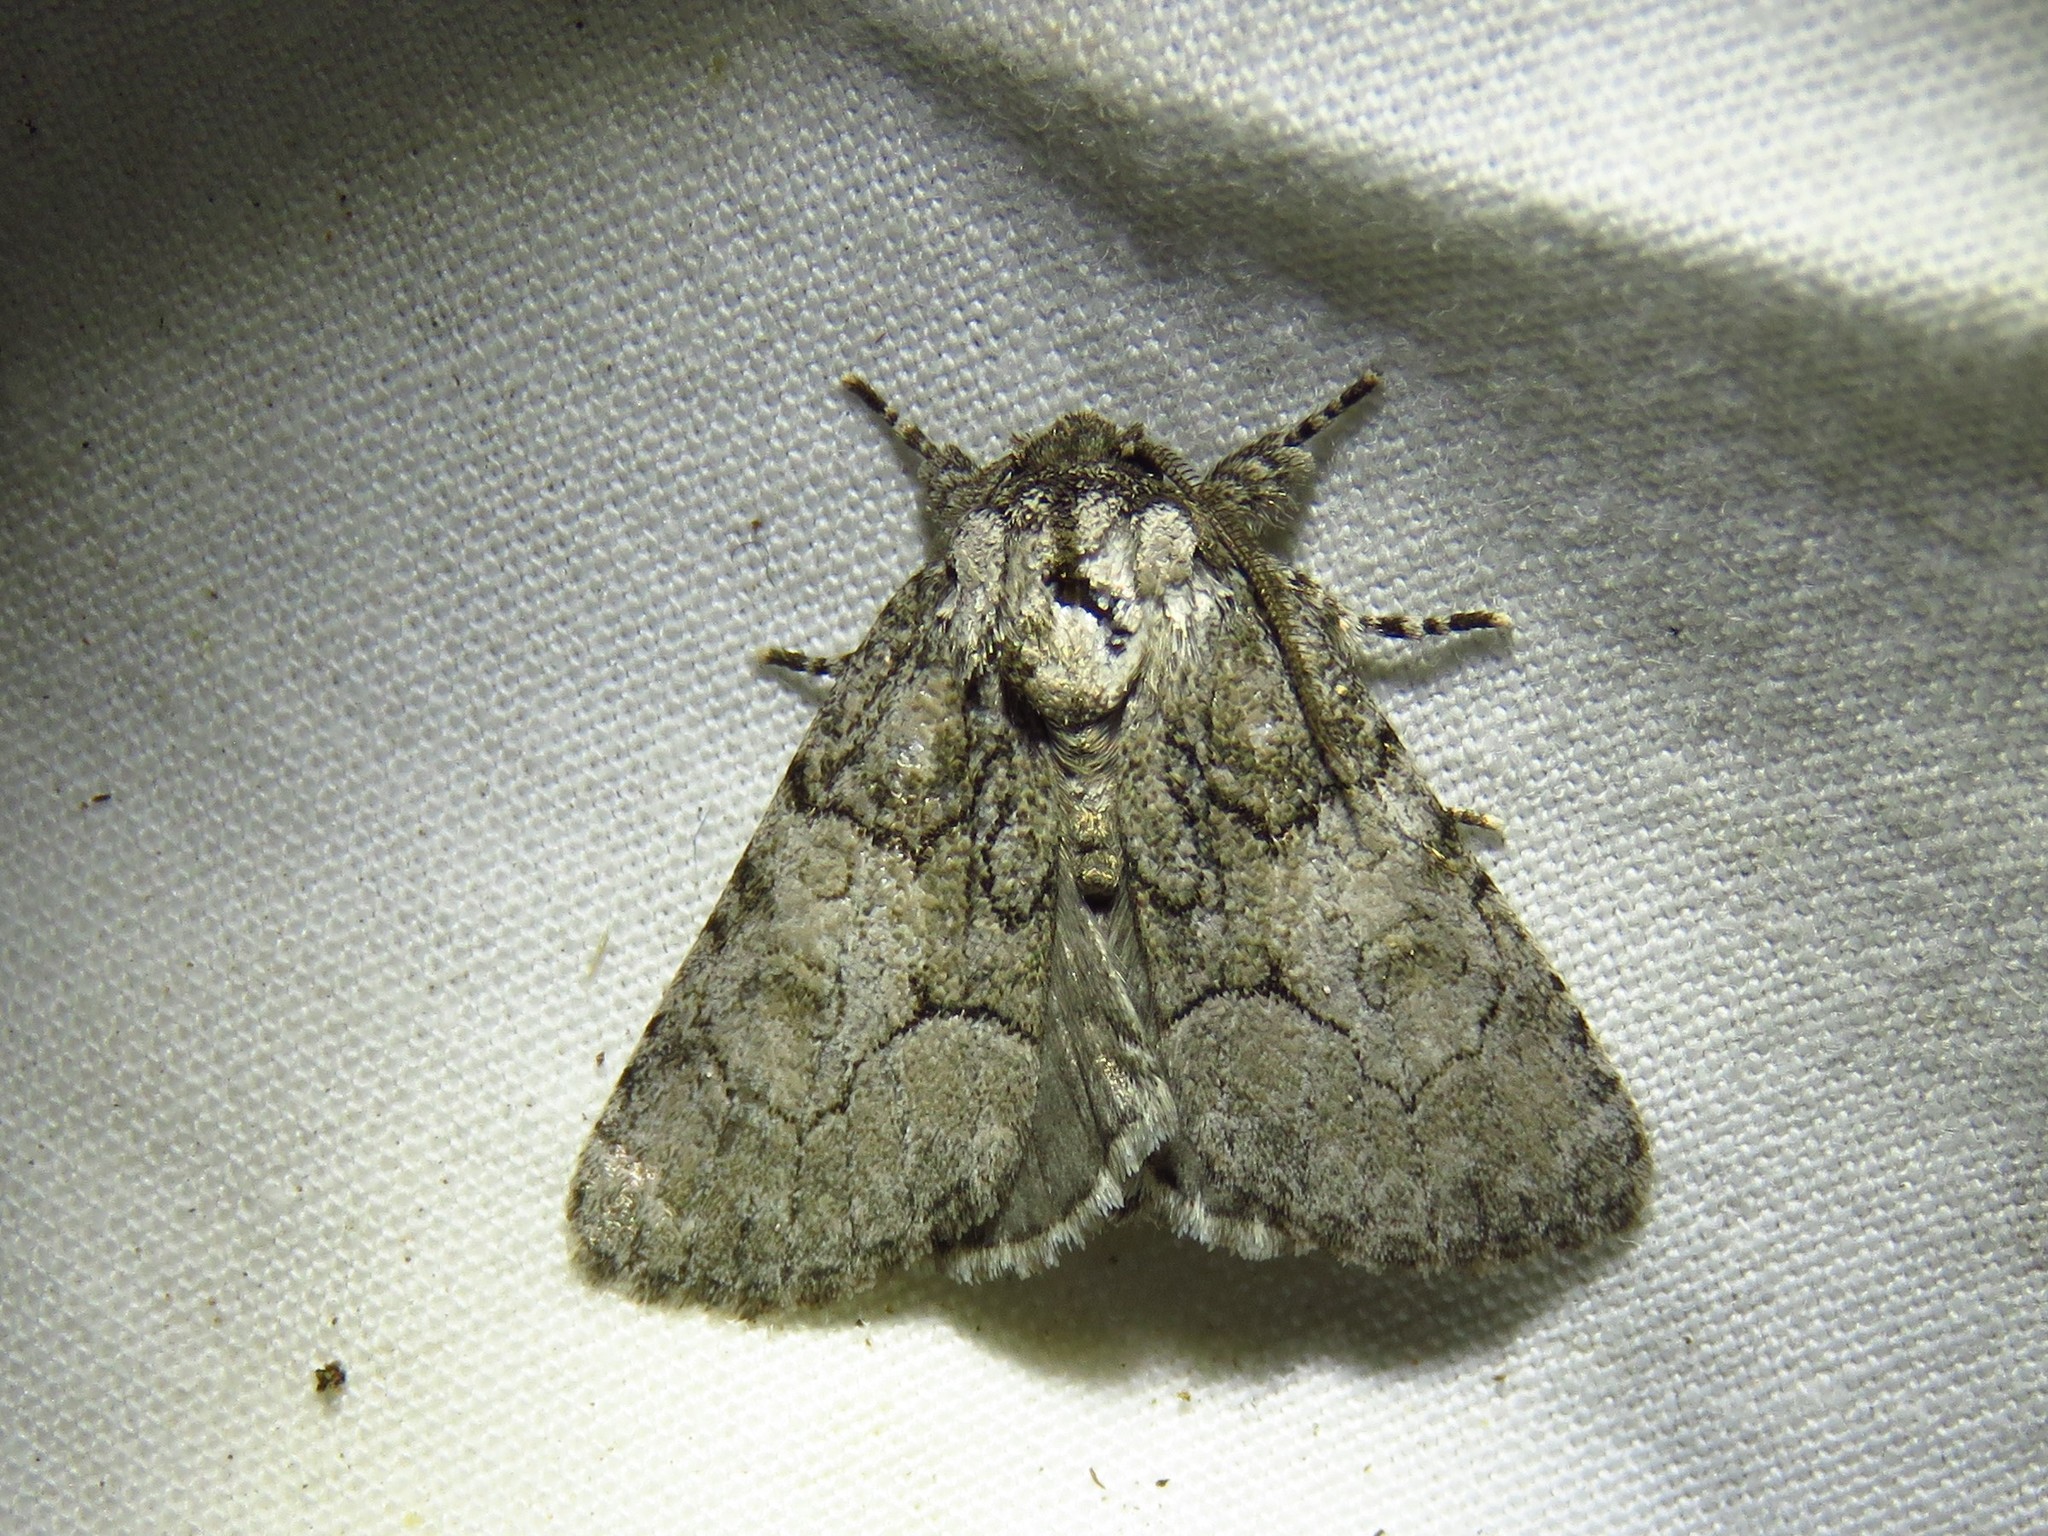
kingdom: Animalia
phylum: Arthropoda
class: Insecta
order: Lepidoptera
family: Noctuidae
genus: Raphia
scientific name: Raphia frater
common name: Brother
